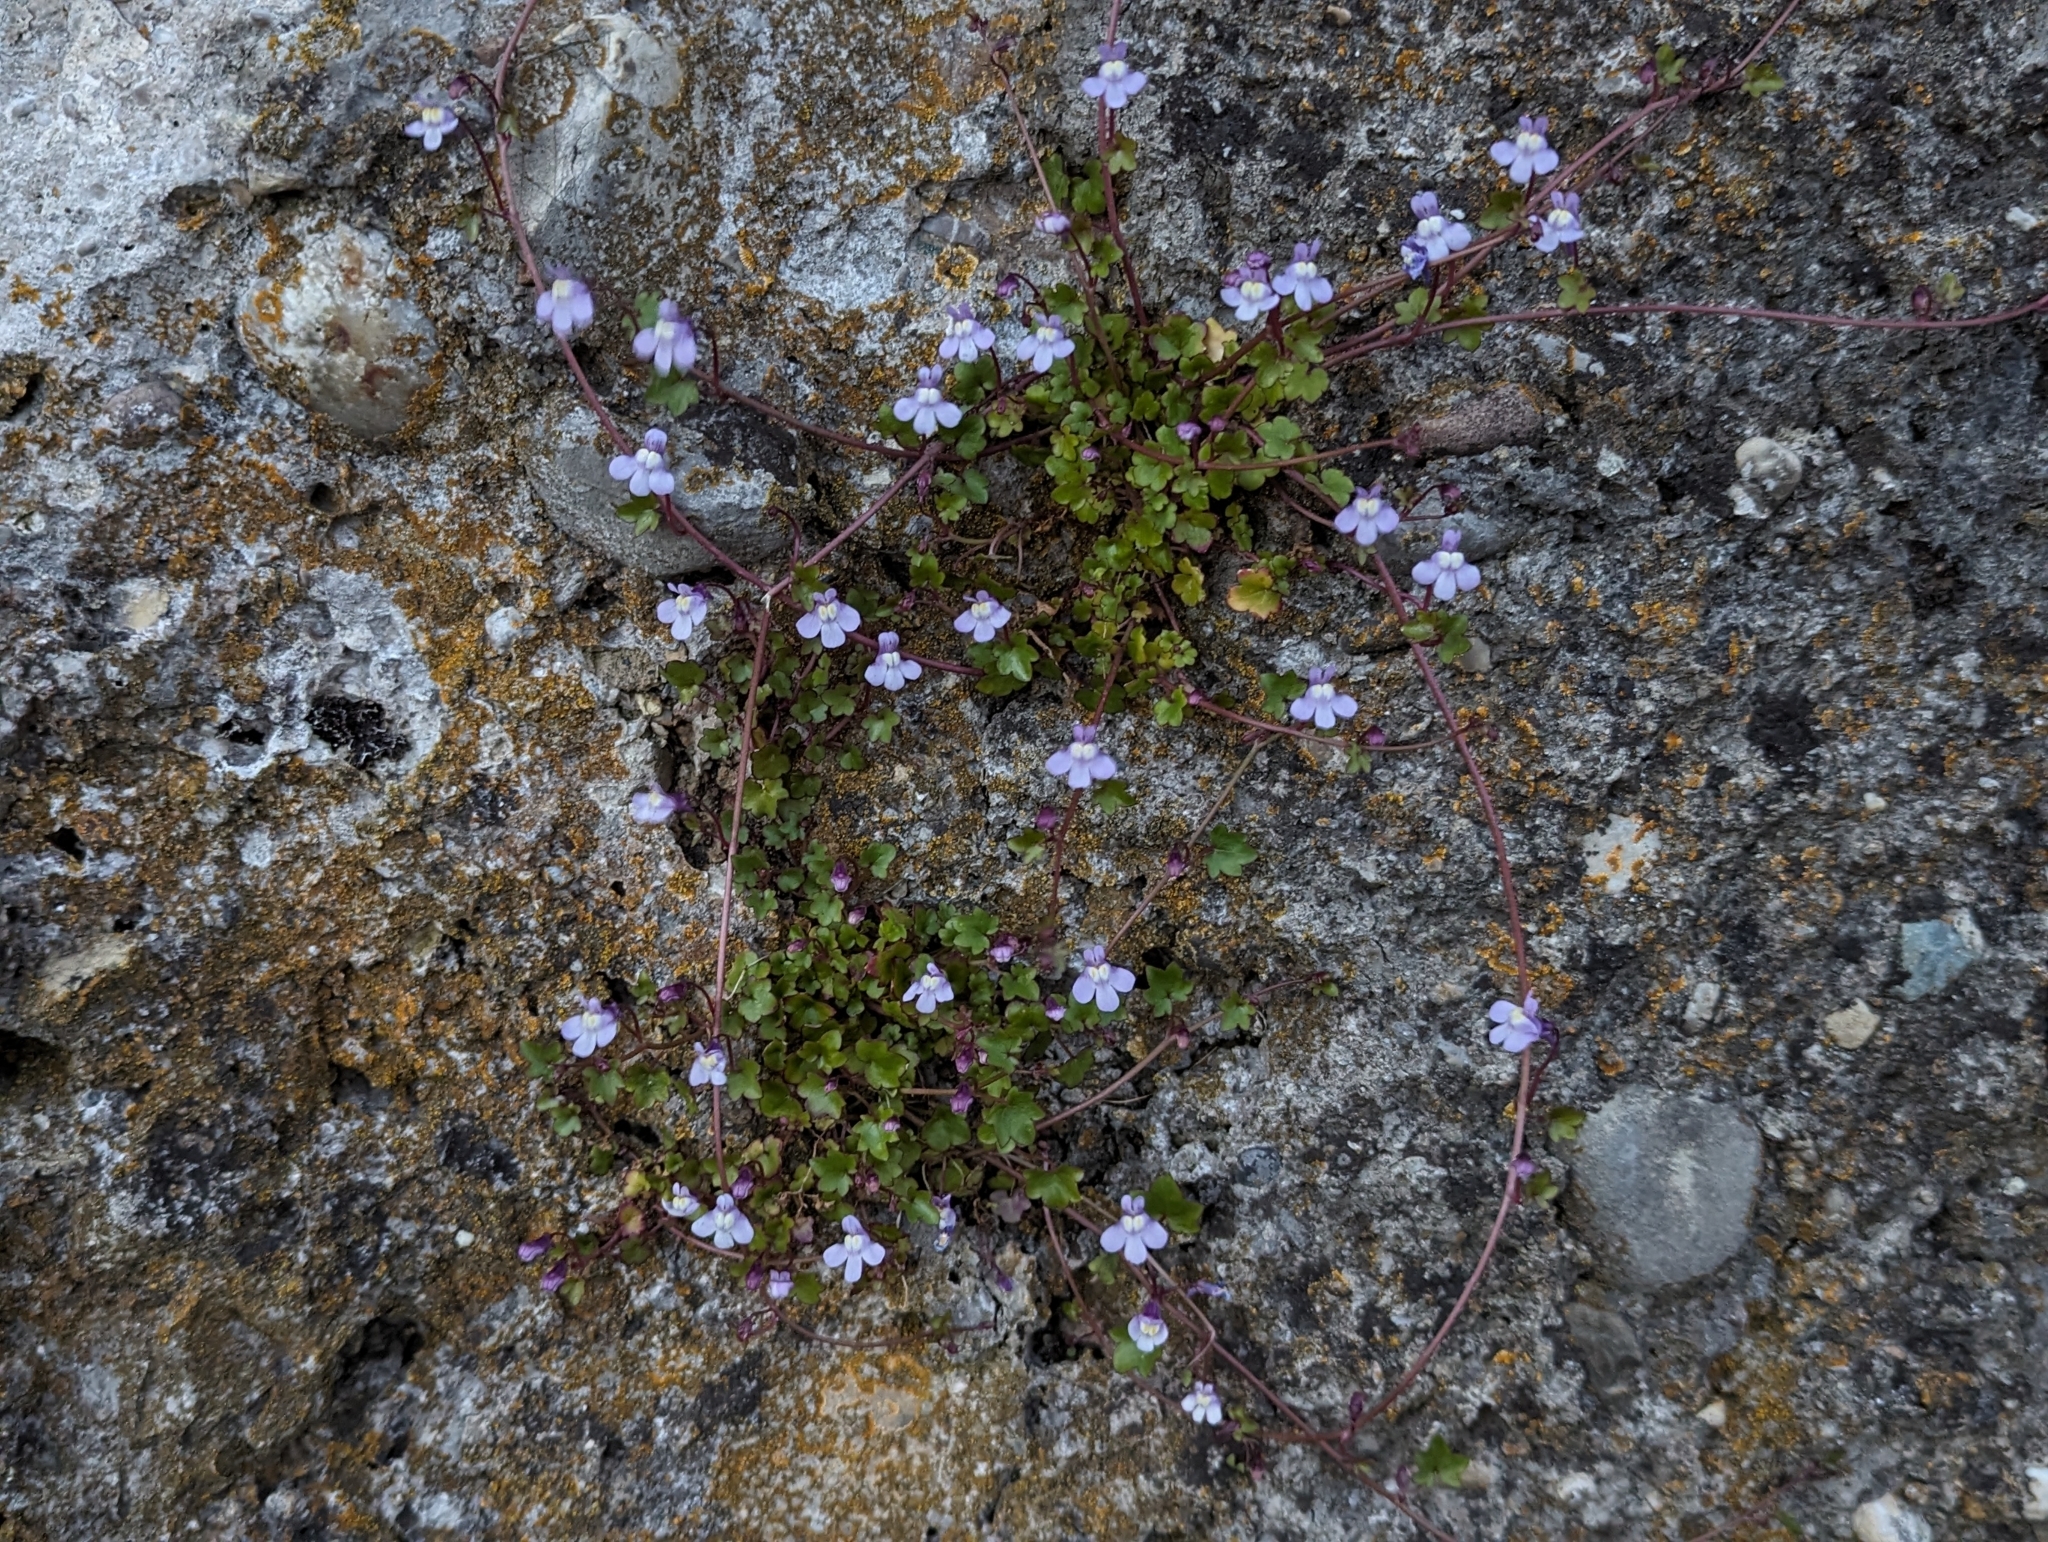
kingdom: Plantae
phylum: Tracheophyta
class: Magnoliopsida
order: Lamiales
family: Plantaginaceae
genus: Cymbalaria
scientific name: Cymbalaria muralis
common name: Ivy-leaved toadflax
